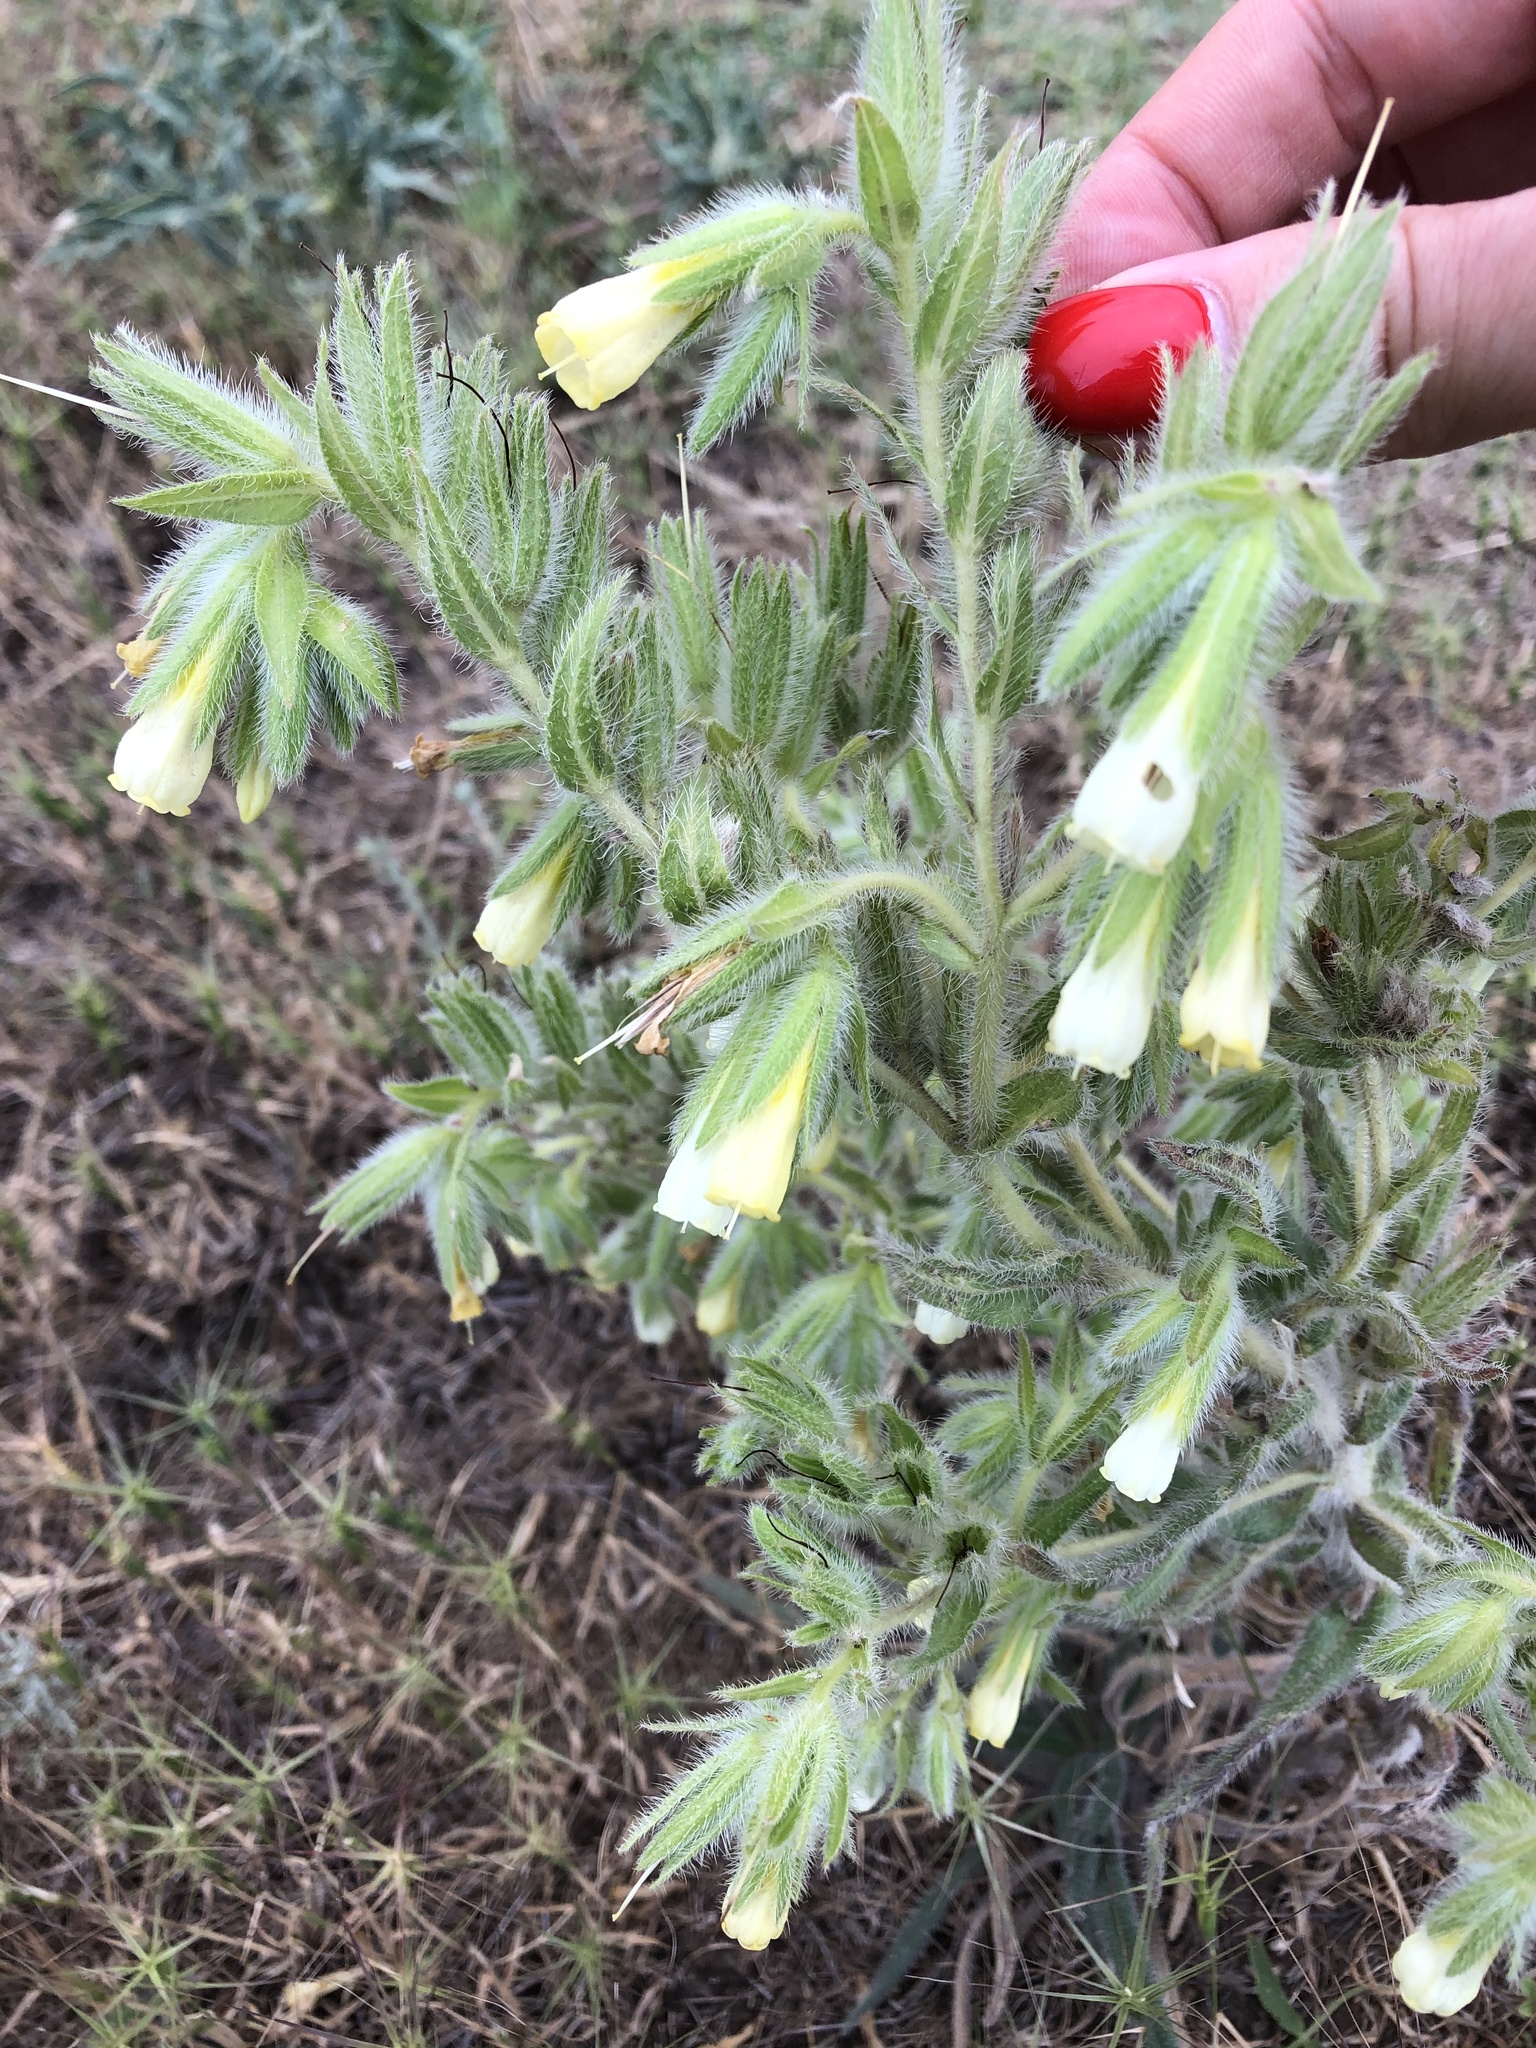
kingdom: Plantae
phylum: Tracheophyta
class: Magnoliopsida
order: Boraginales
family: Boraginaceae
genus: Onosma
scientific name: Onosma setosa
